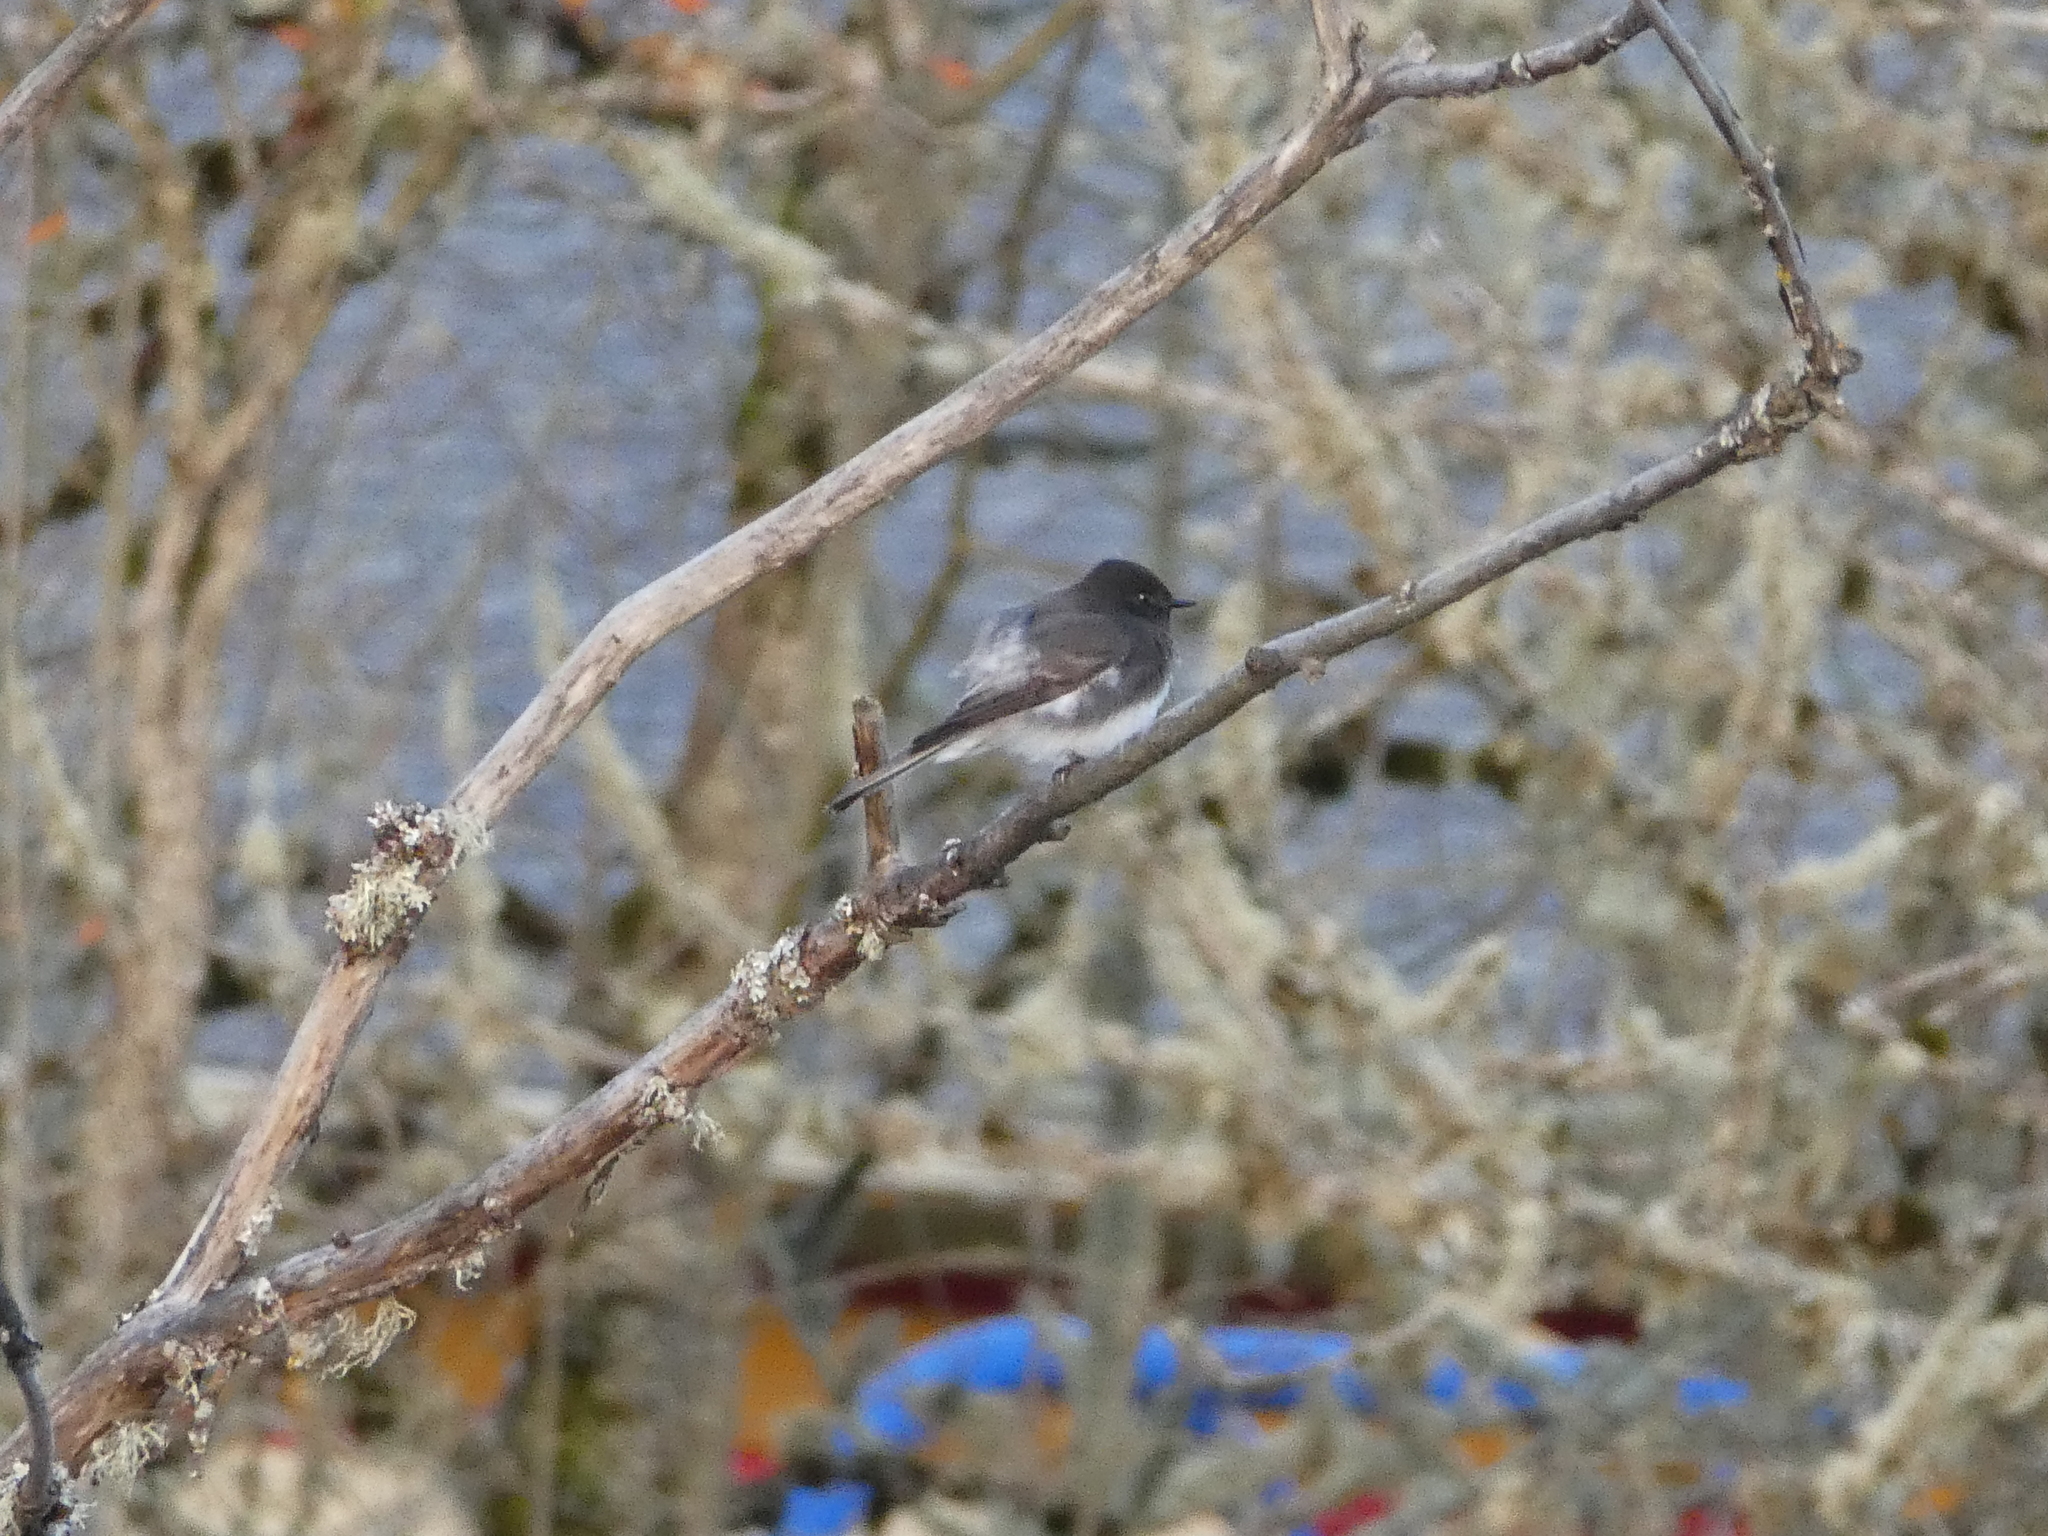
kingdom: Animalia
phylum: Chordata
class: Aves
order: Passeriformes
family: Tyrannidae
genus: Sayornis
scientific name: Sayornis nigricans
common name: Black phoebe
